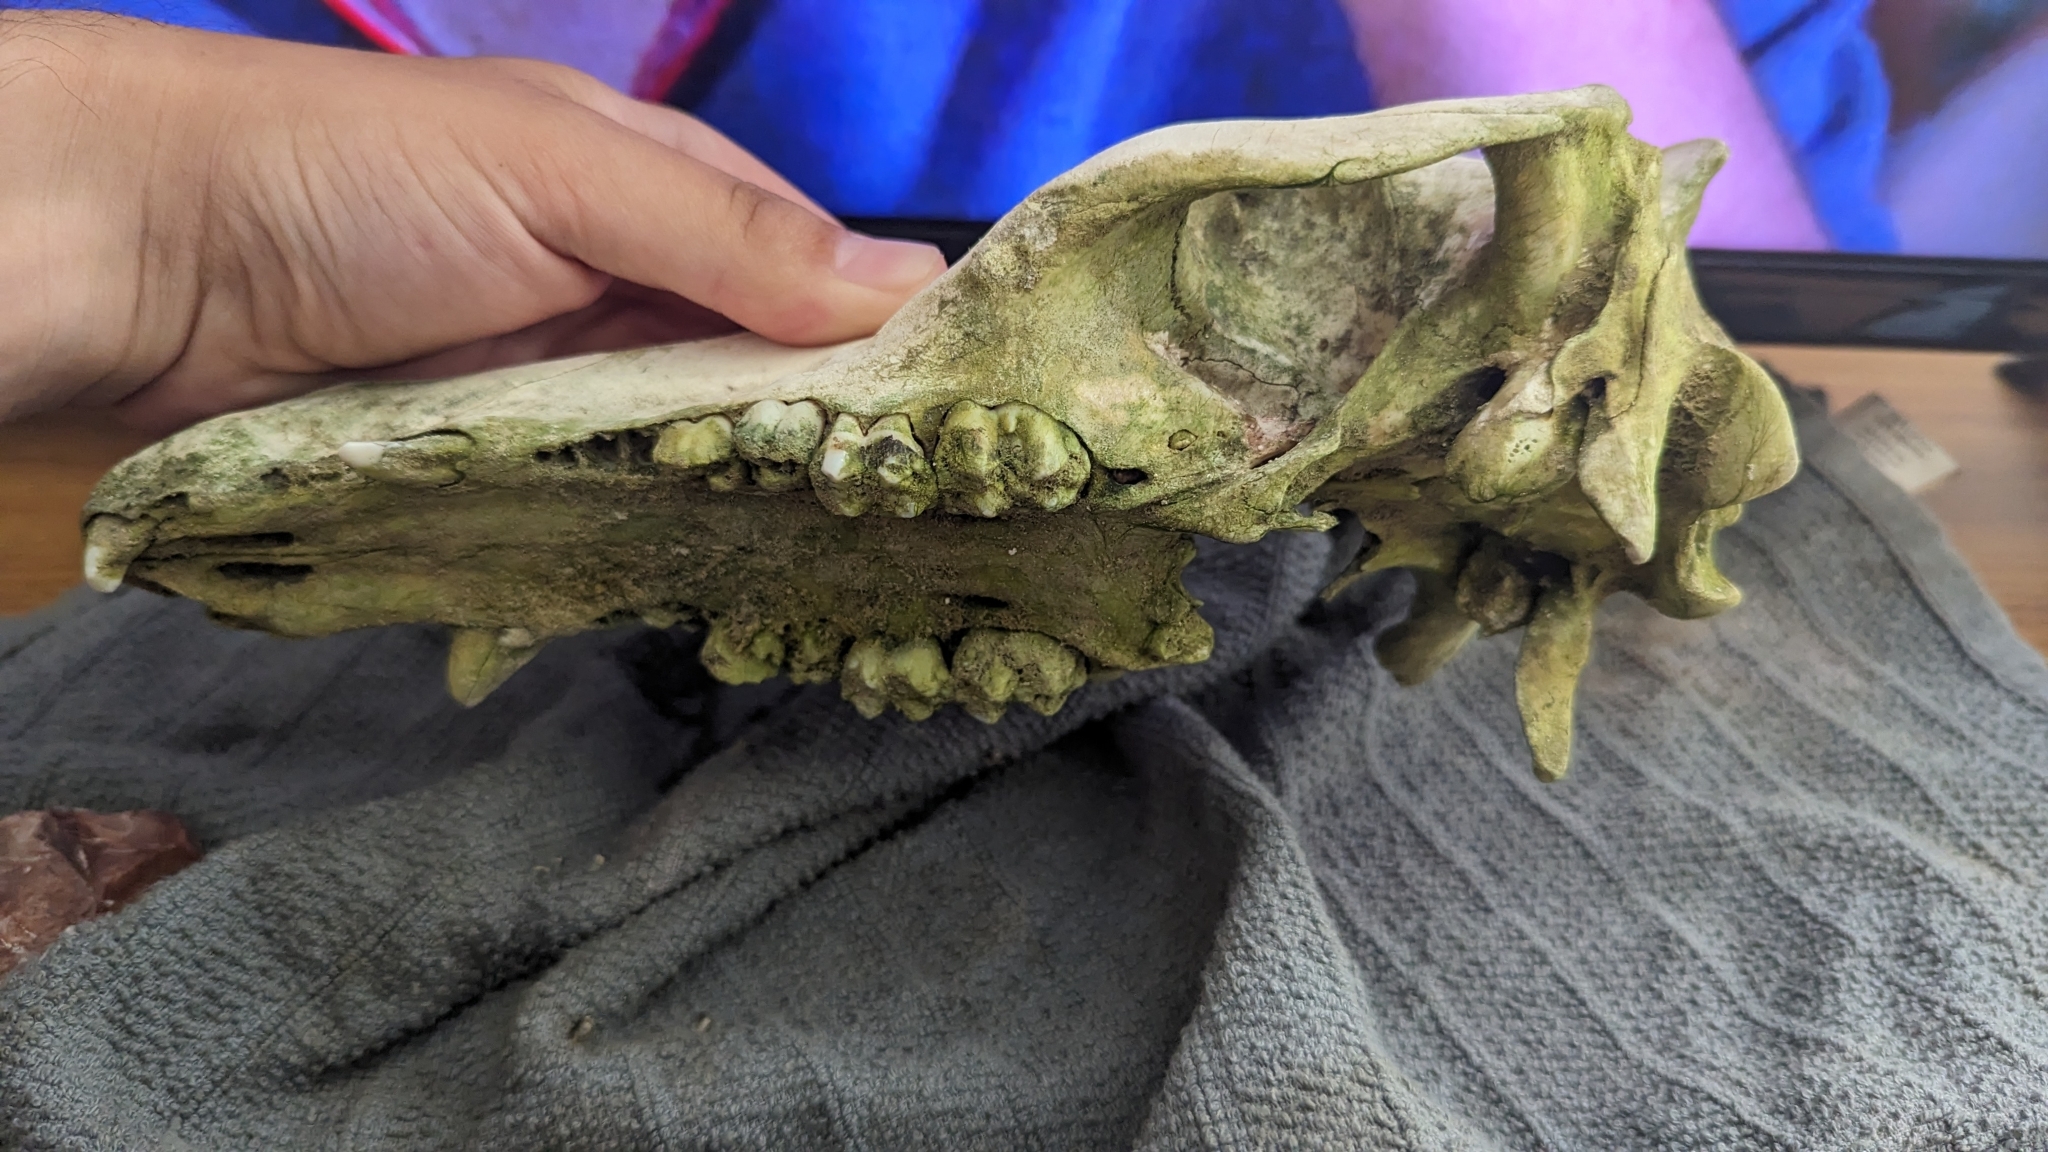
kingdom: Animalia
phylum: Chordata
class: Mammalia
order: Artiodactyla
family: Suidae
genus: Sus
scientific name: Sus scrofa
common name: Wild boar
